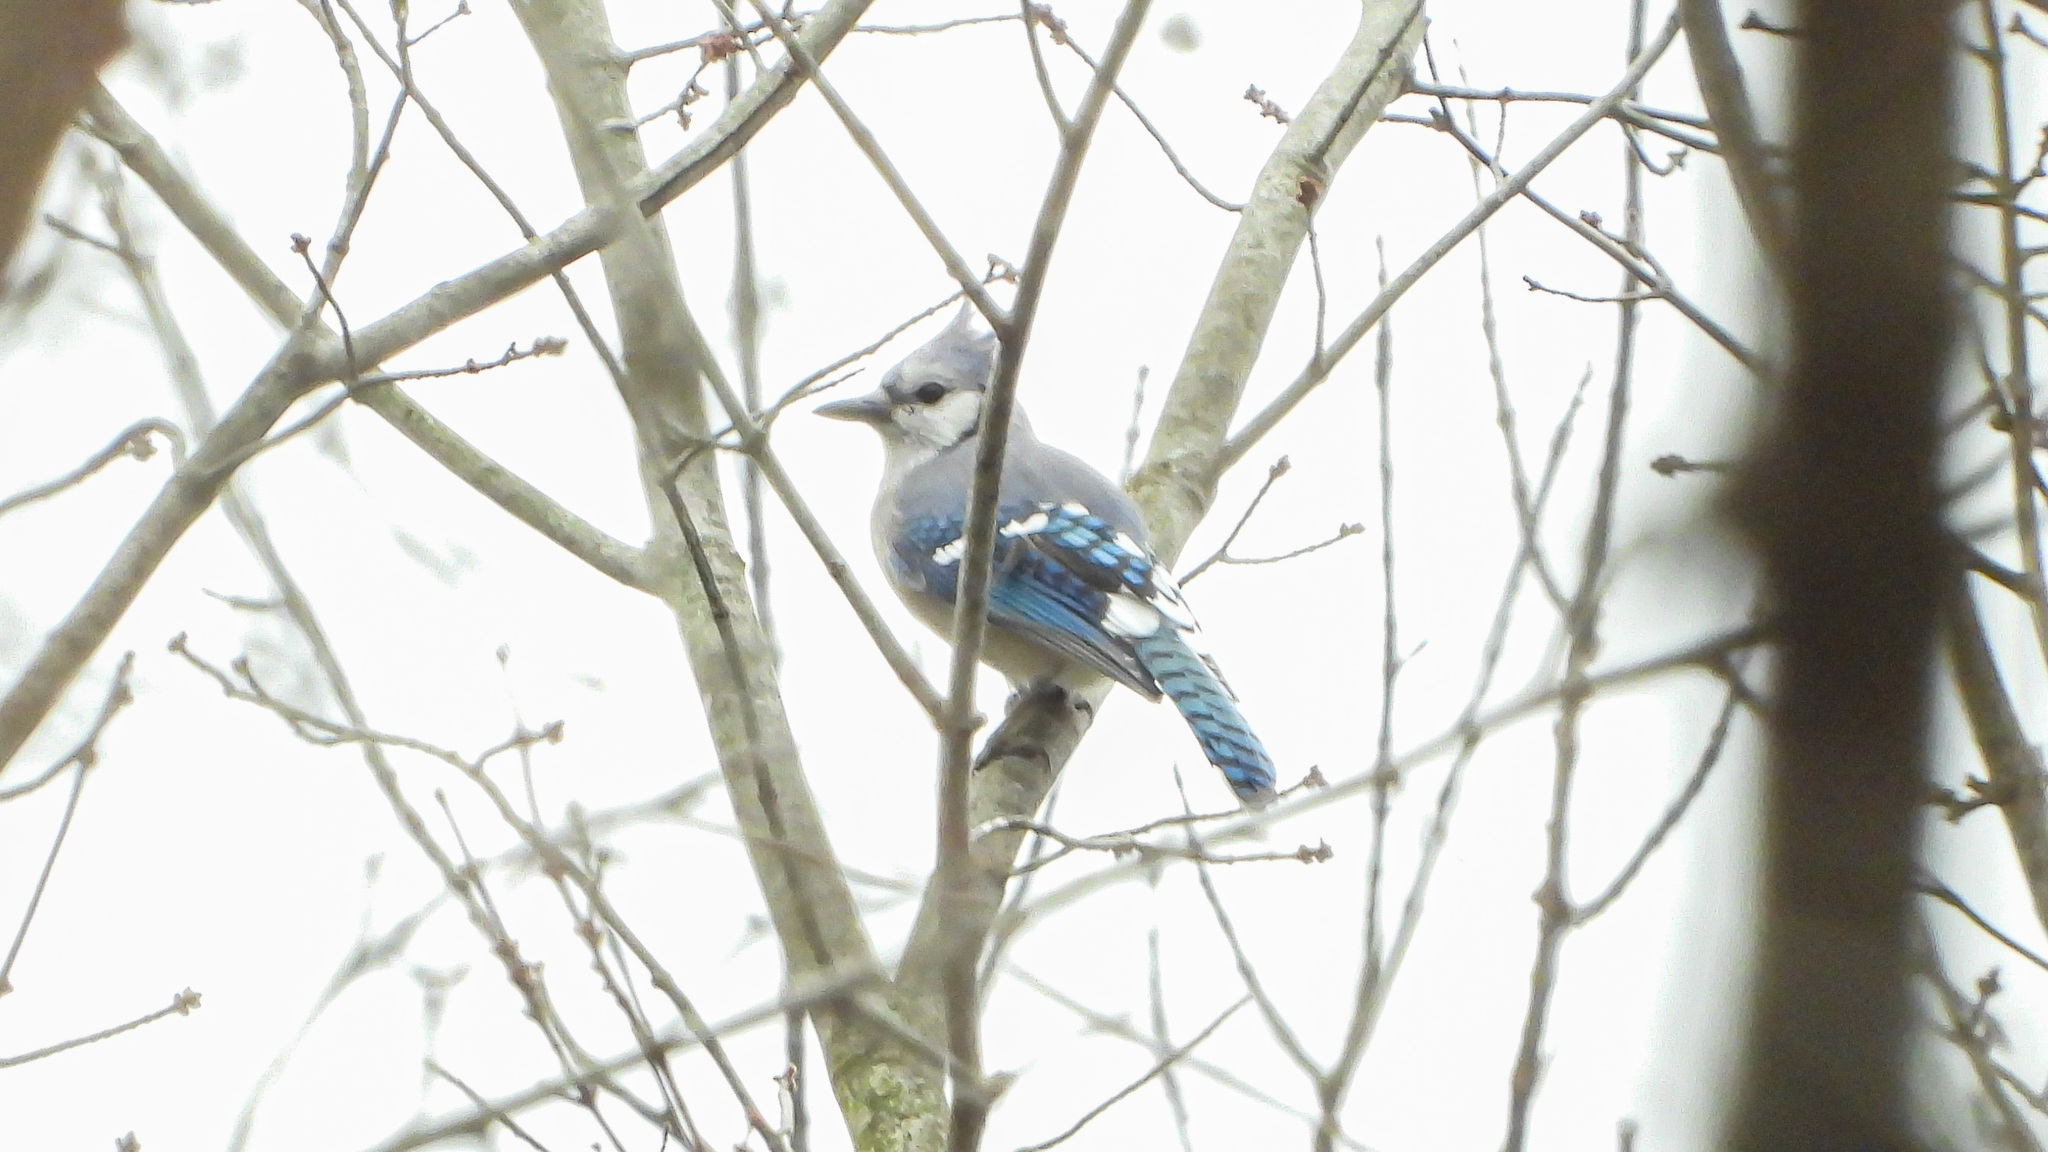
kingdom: Animalia
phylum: Chordata
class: Aves
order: Passeriformes
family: Corvidae
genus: Cyanocitta
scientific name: Cyanocitta cristata
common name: Blue jay
